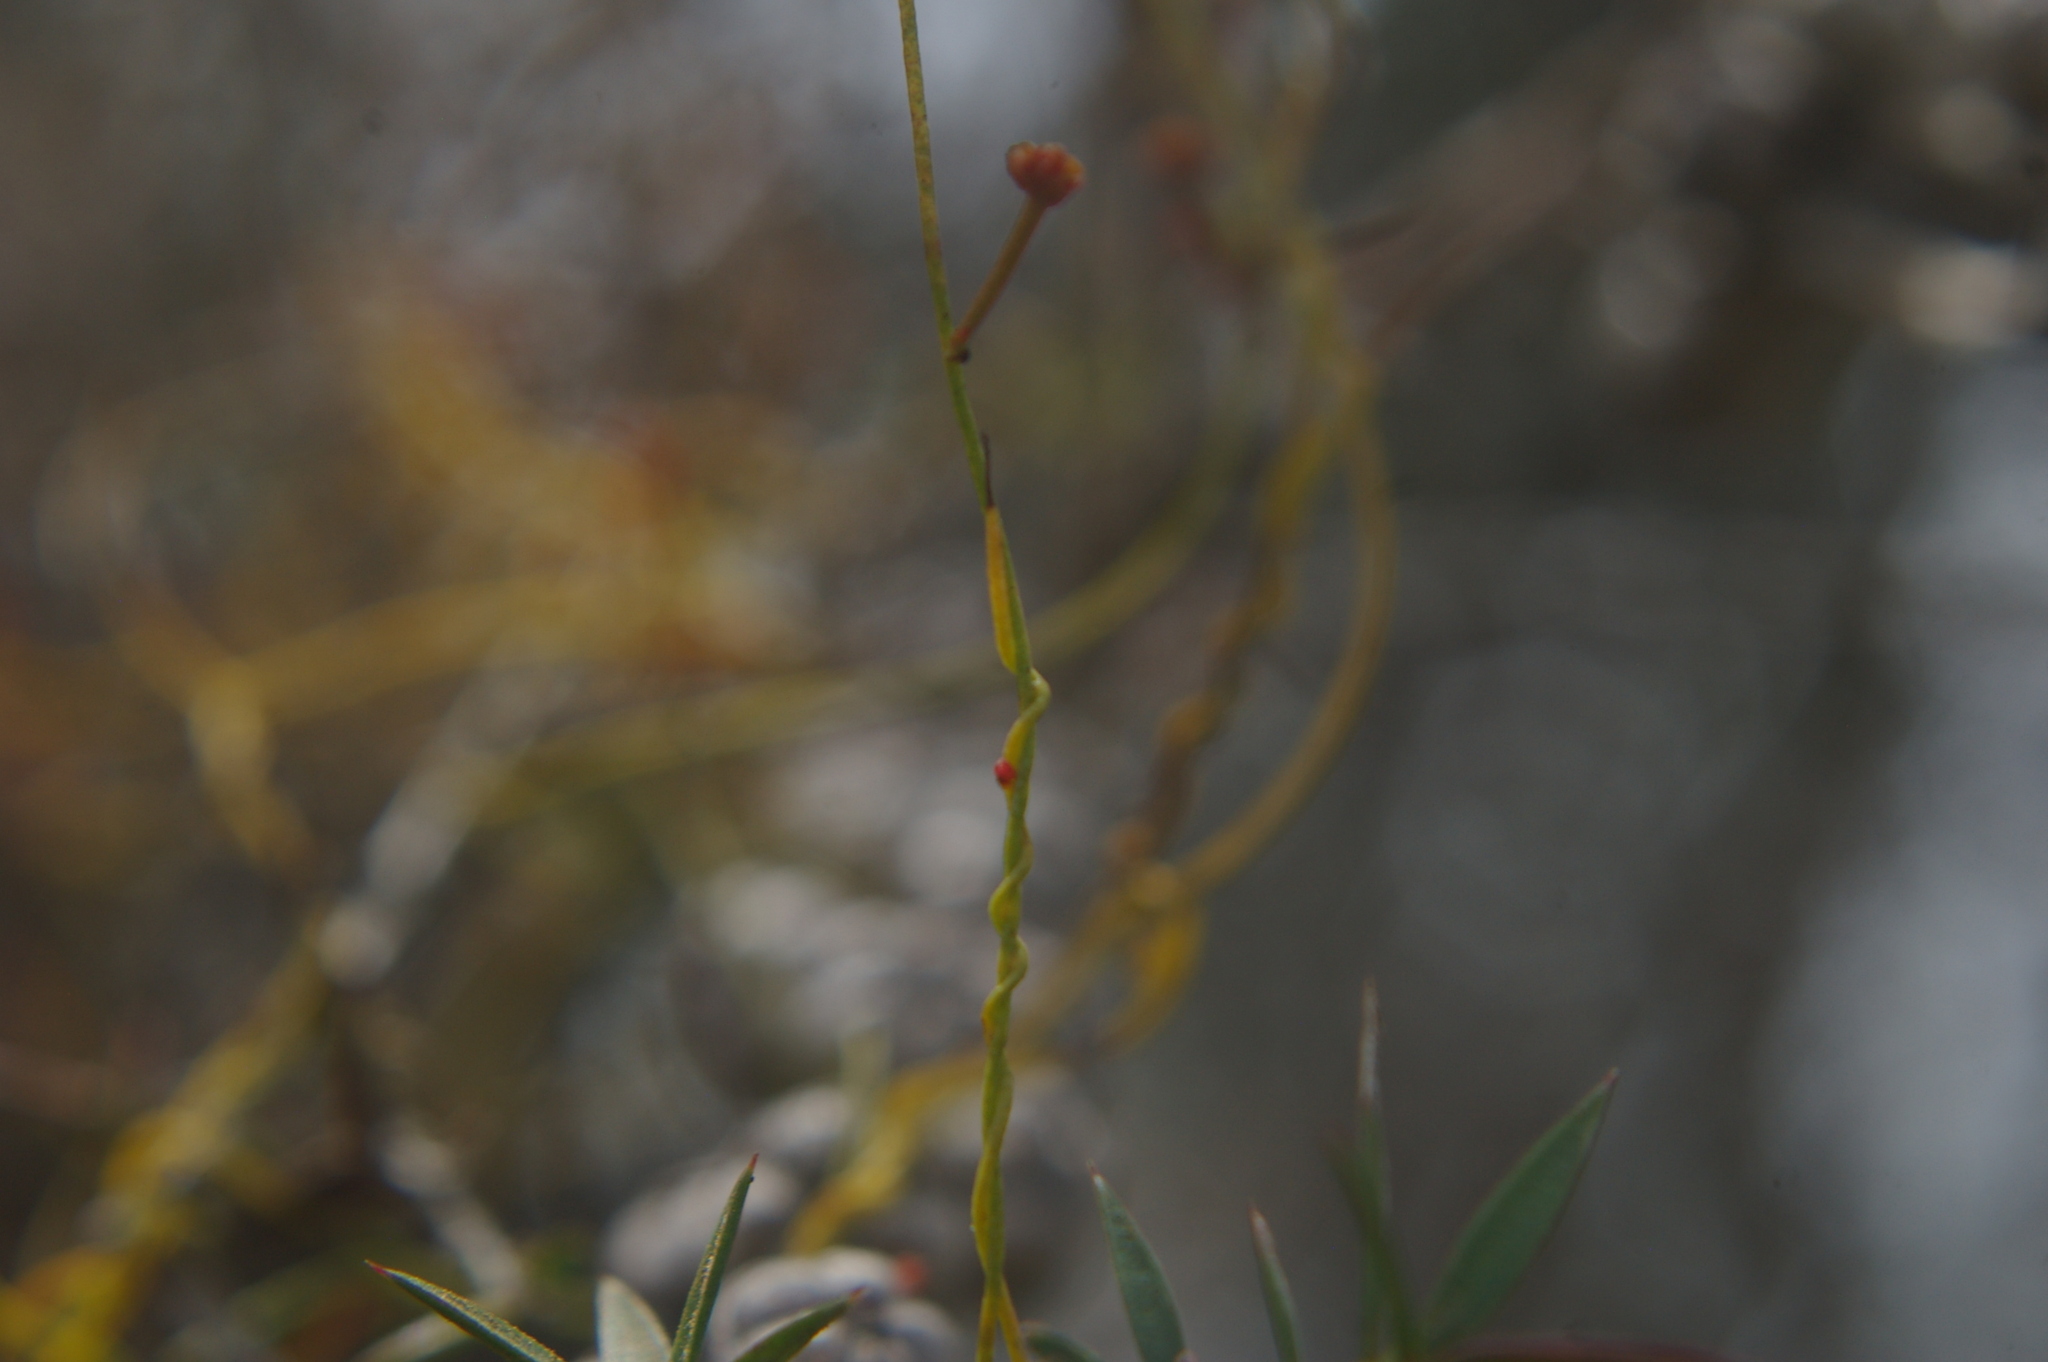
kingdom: Plantae
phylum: Tracheophyta
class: Magnoliopsida
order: Laurales
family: Lauraceae
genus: Cassytha
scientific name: Cassytha glabella
